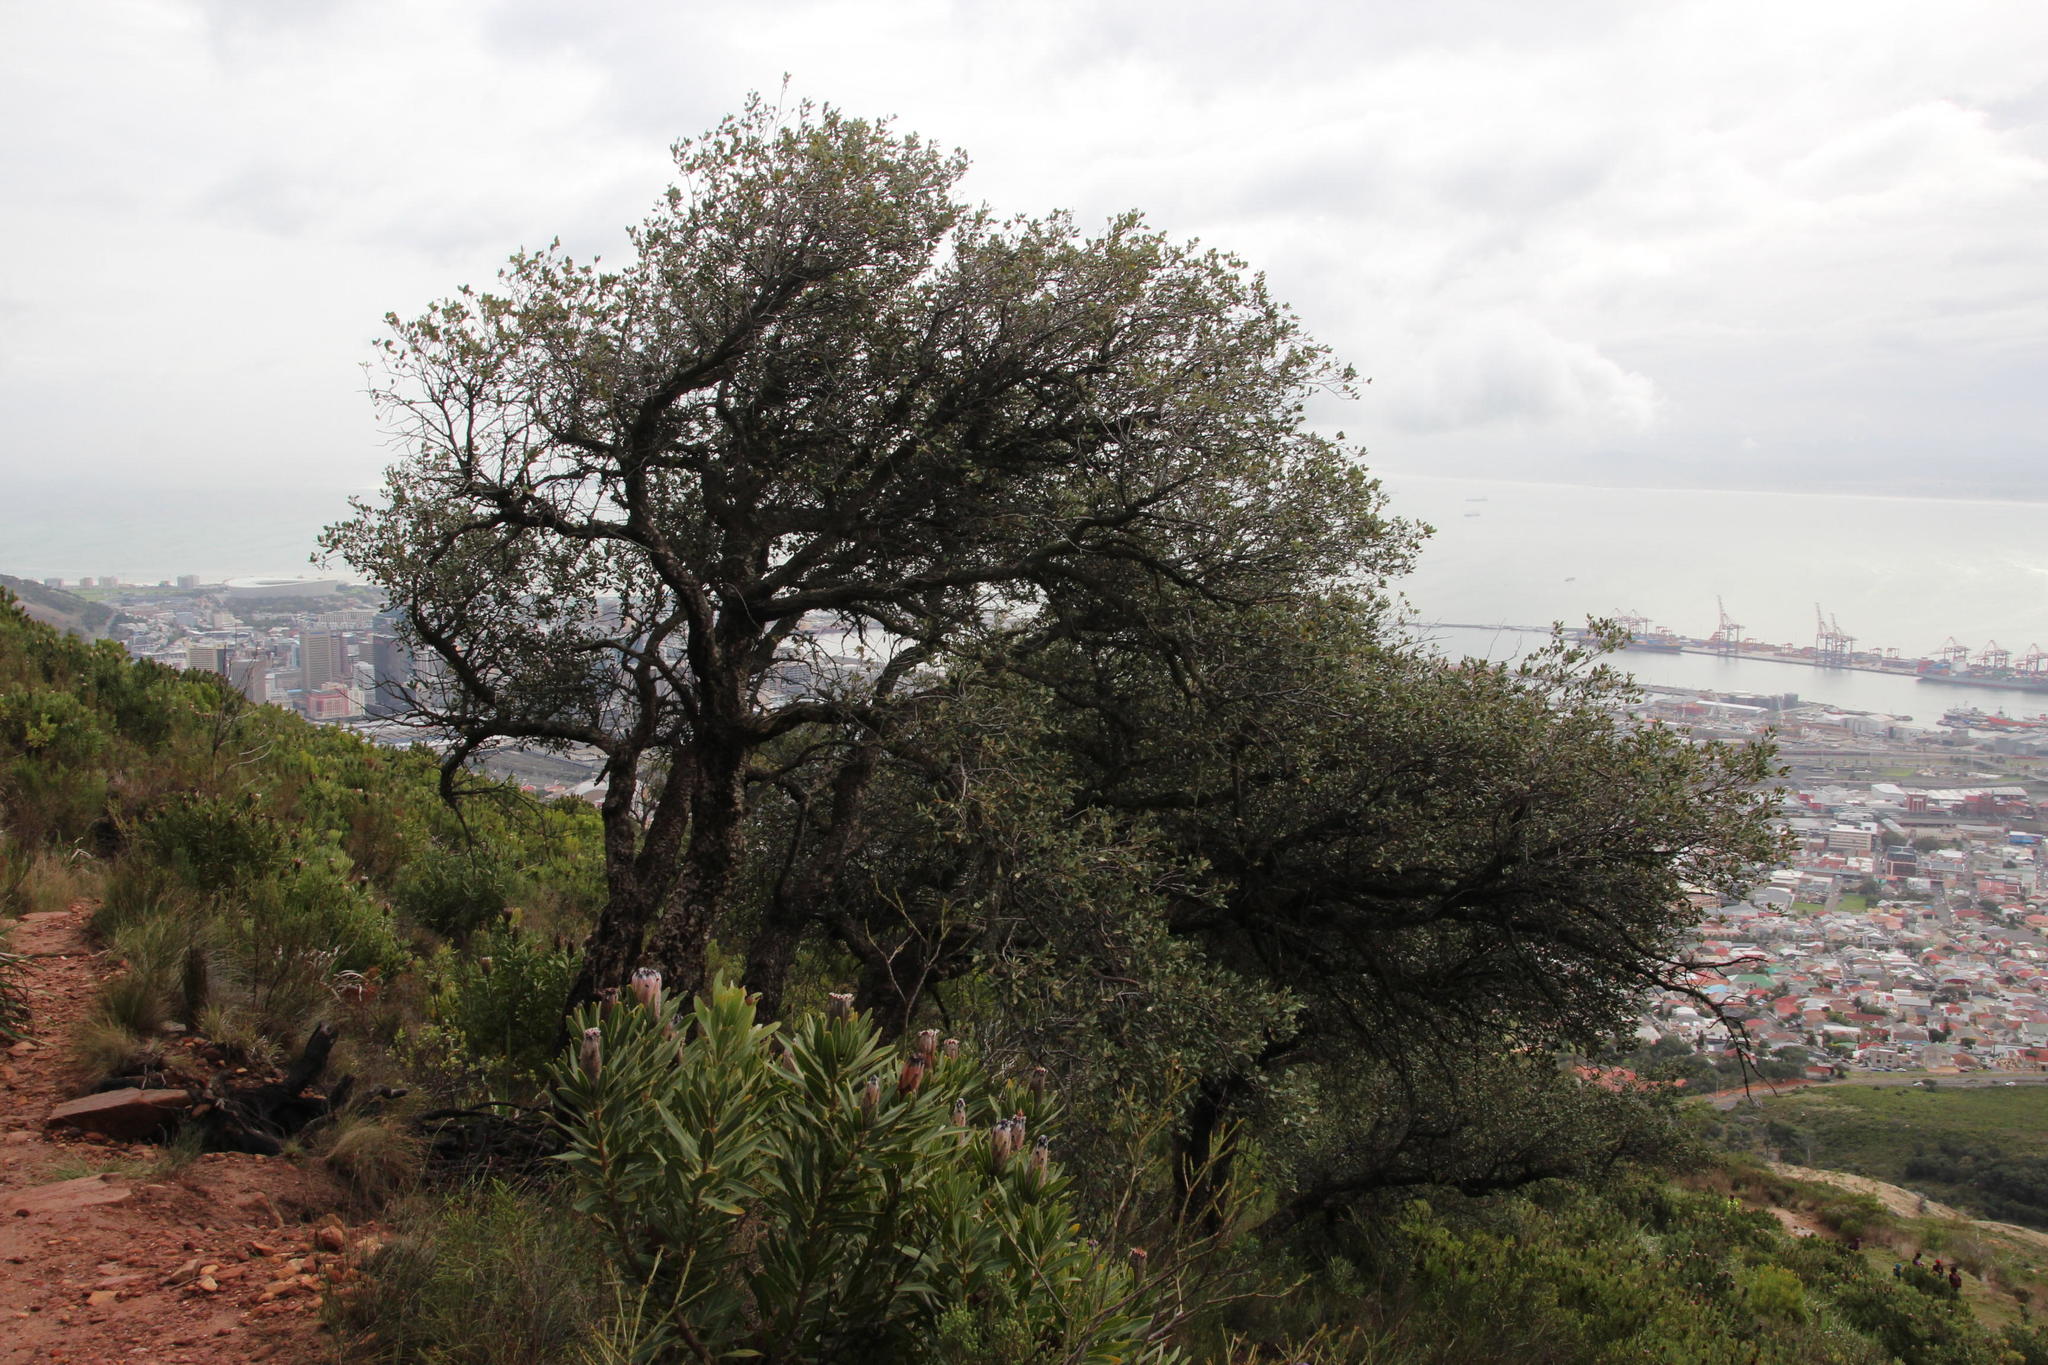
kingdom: Plantae
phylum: Tracheophyta
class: Magnoliopsida
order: Fagales
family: Fagaceae
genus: Quercus
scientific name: Quercus suber
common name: Cork oak
